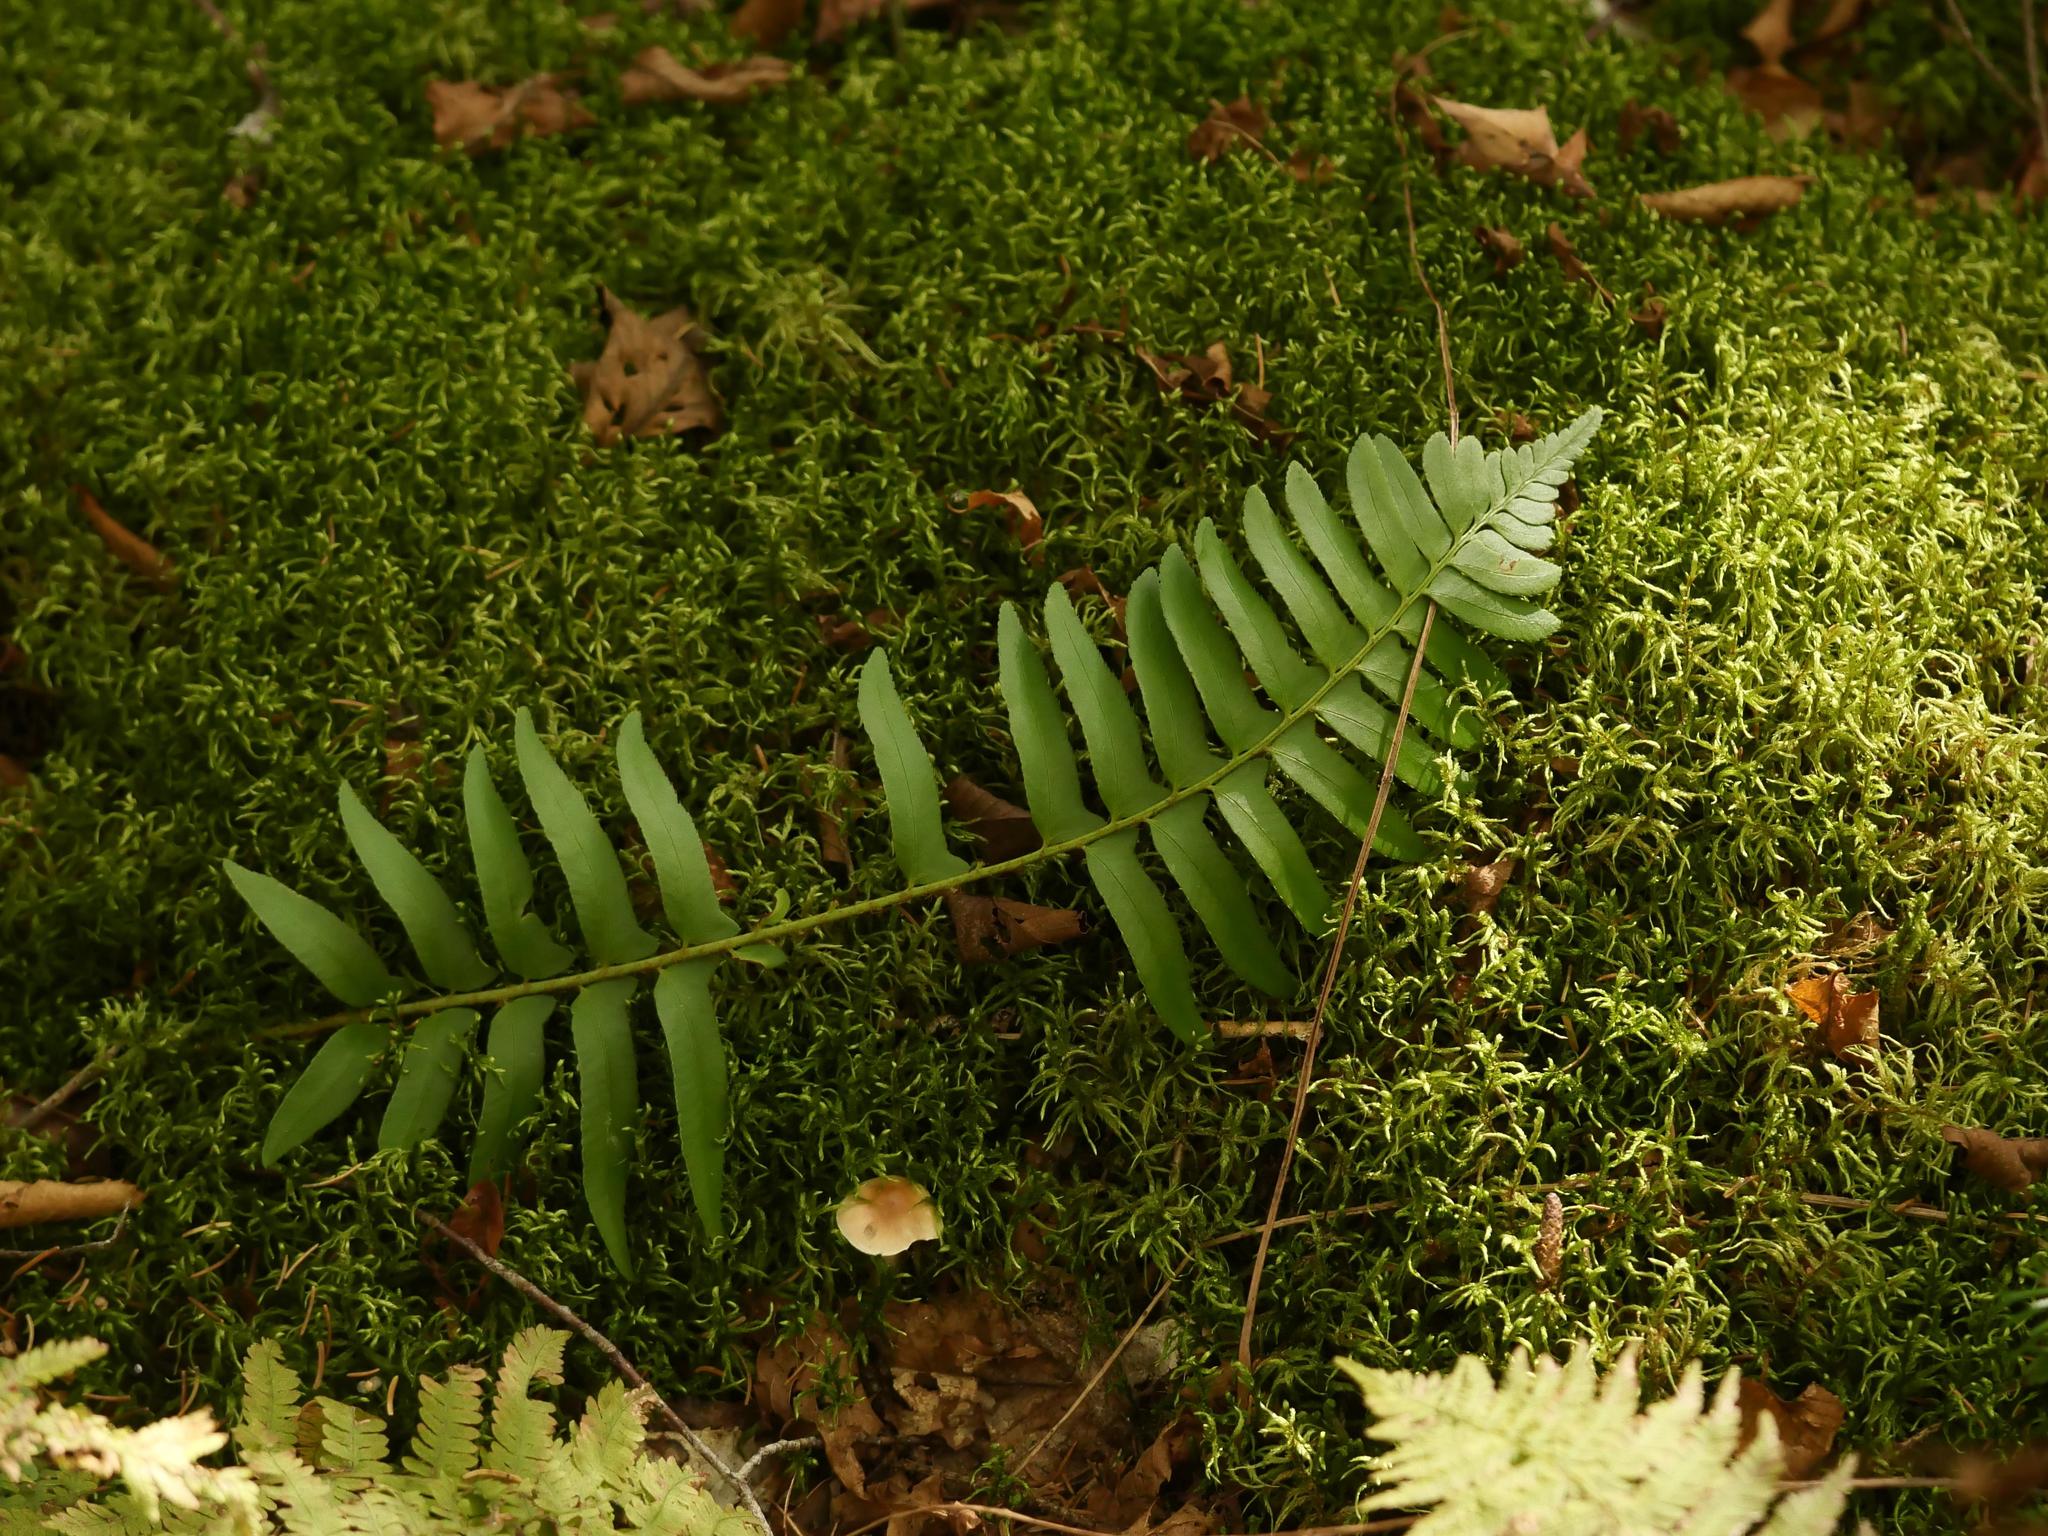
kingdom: Plantae
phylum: Tracheophyta
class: Polypodiopsida
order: Polypodiales
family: Dryopteridaceae
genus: Polystichum
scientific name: Polystichum acrostichoides
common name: Christmas fern
